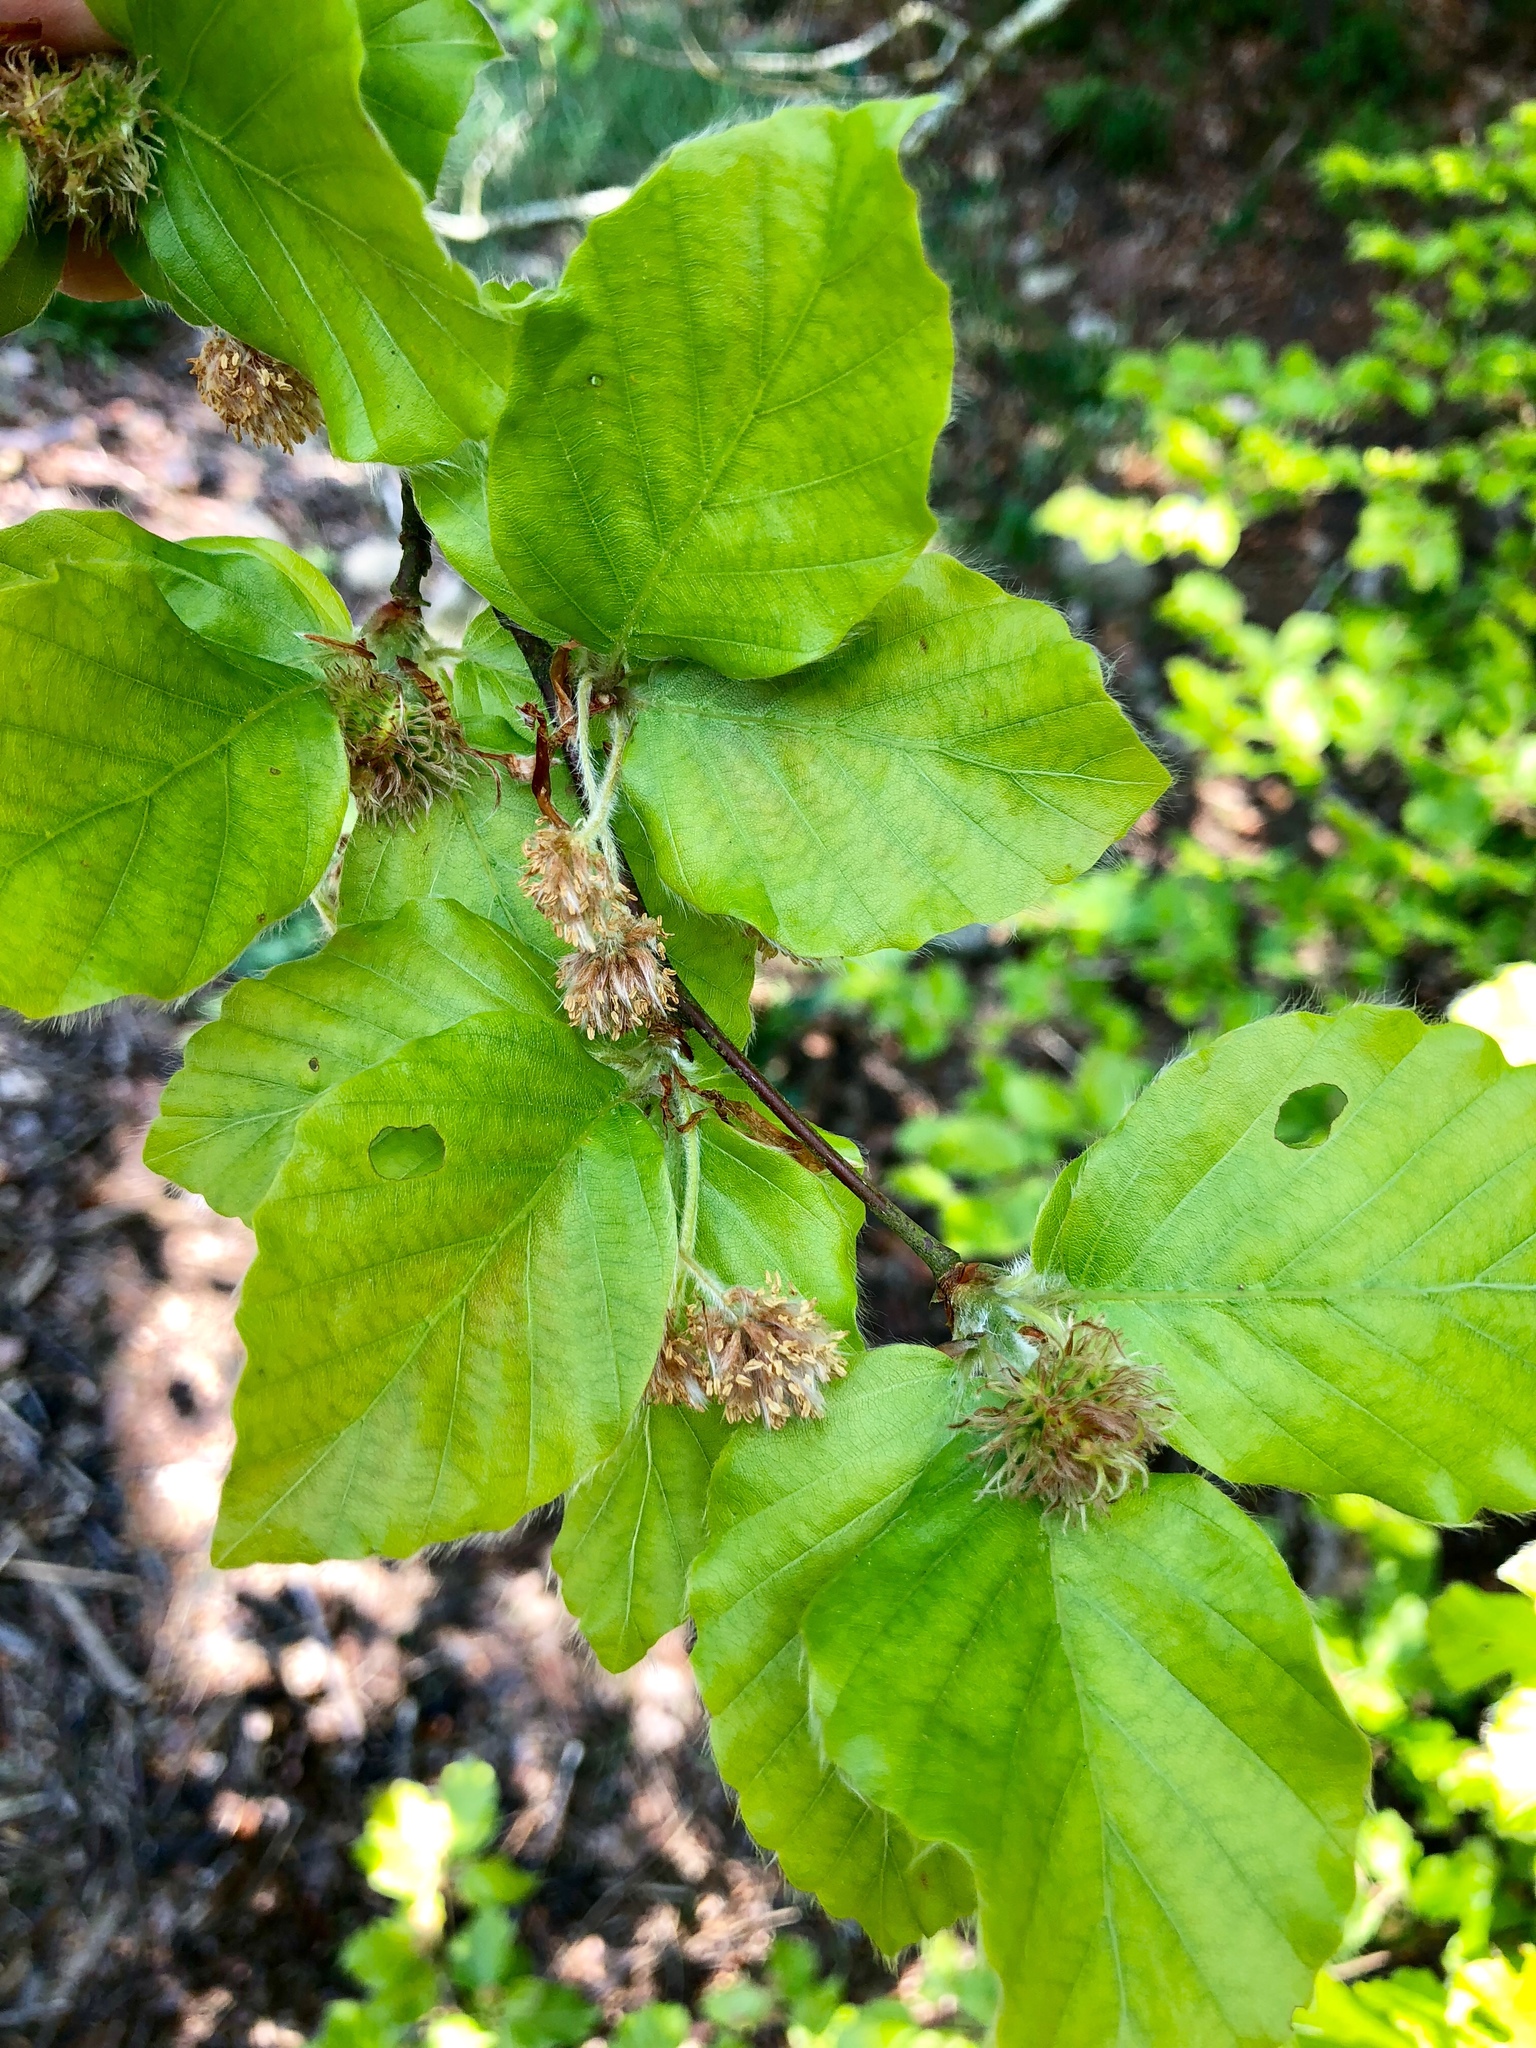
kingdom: Plantae
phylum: Tracheophyta
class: Magnoliopsida
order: Fagales
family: Fagaceae
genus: Fagus
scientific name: Fagus sylvatica
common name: Beech
